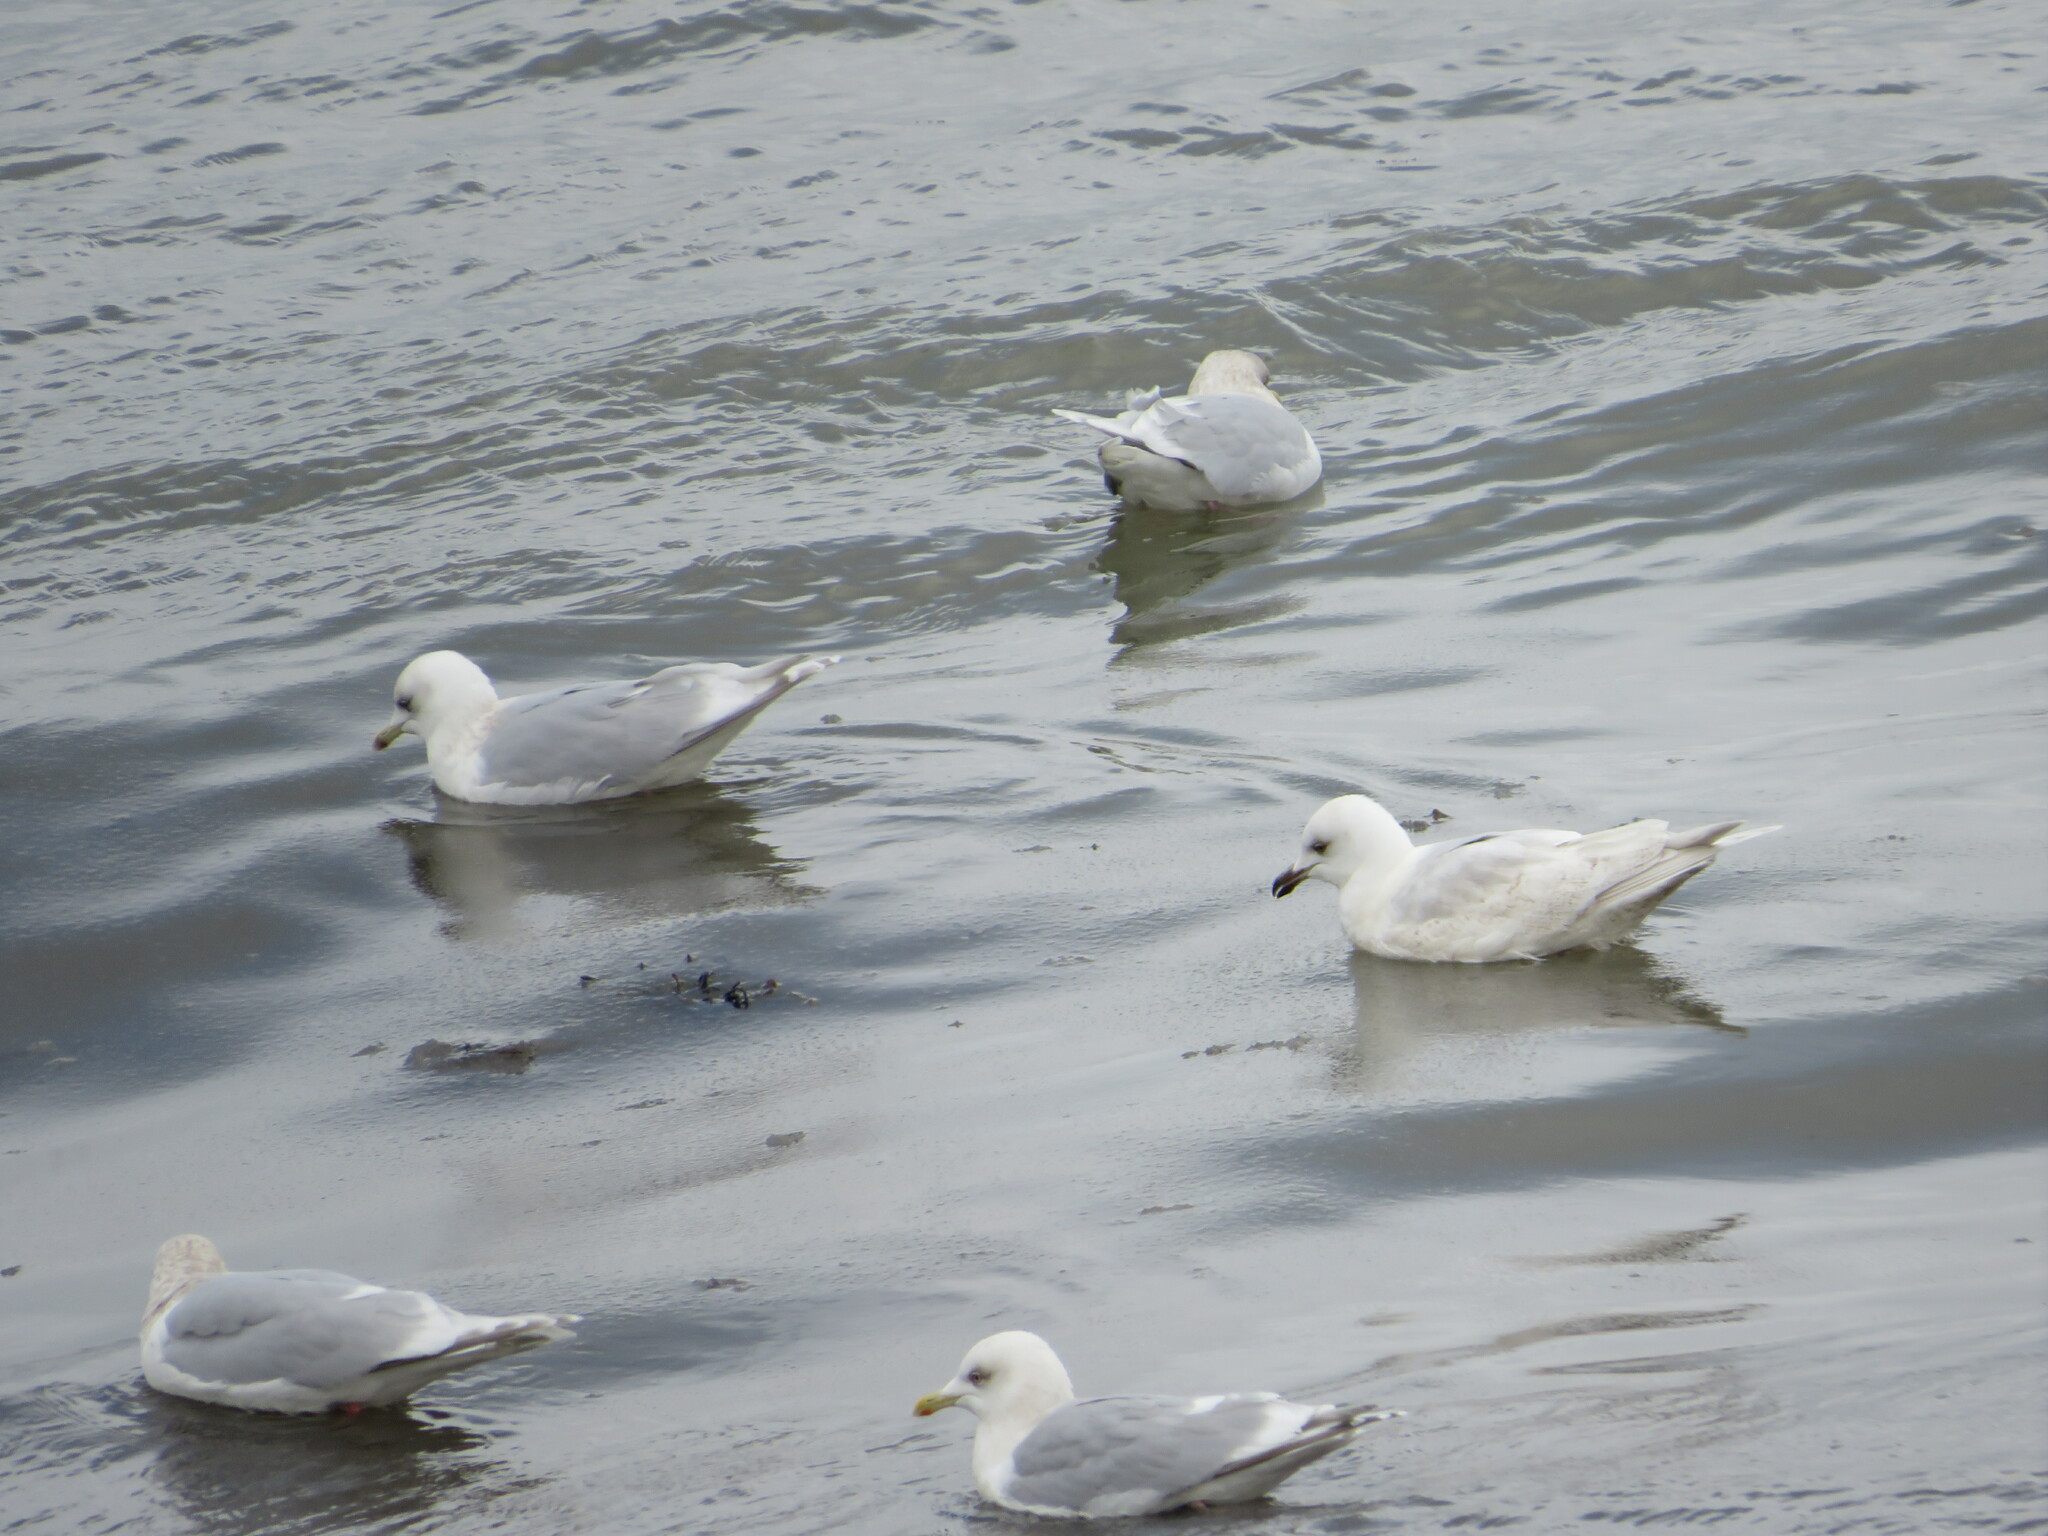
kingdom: Animalia
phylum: Chordata
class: Aves
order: Charadriiformes
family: Laridae
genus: Larus
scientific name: Larus glaucoides
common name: Iceland gull
